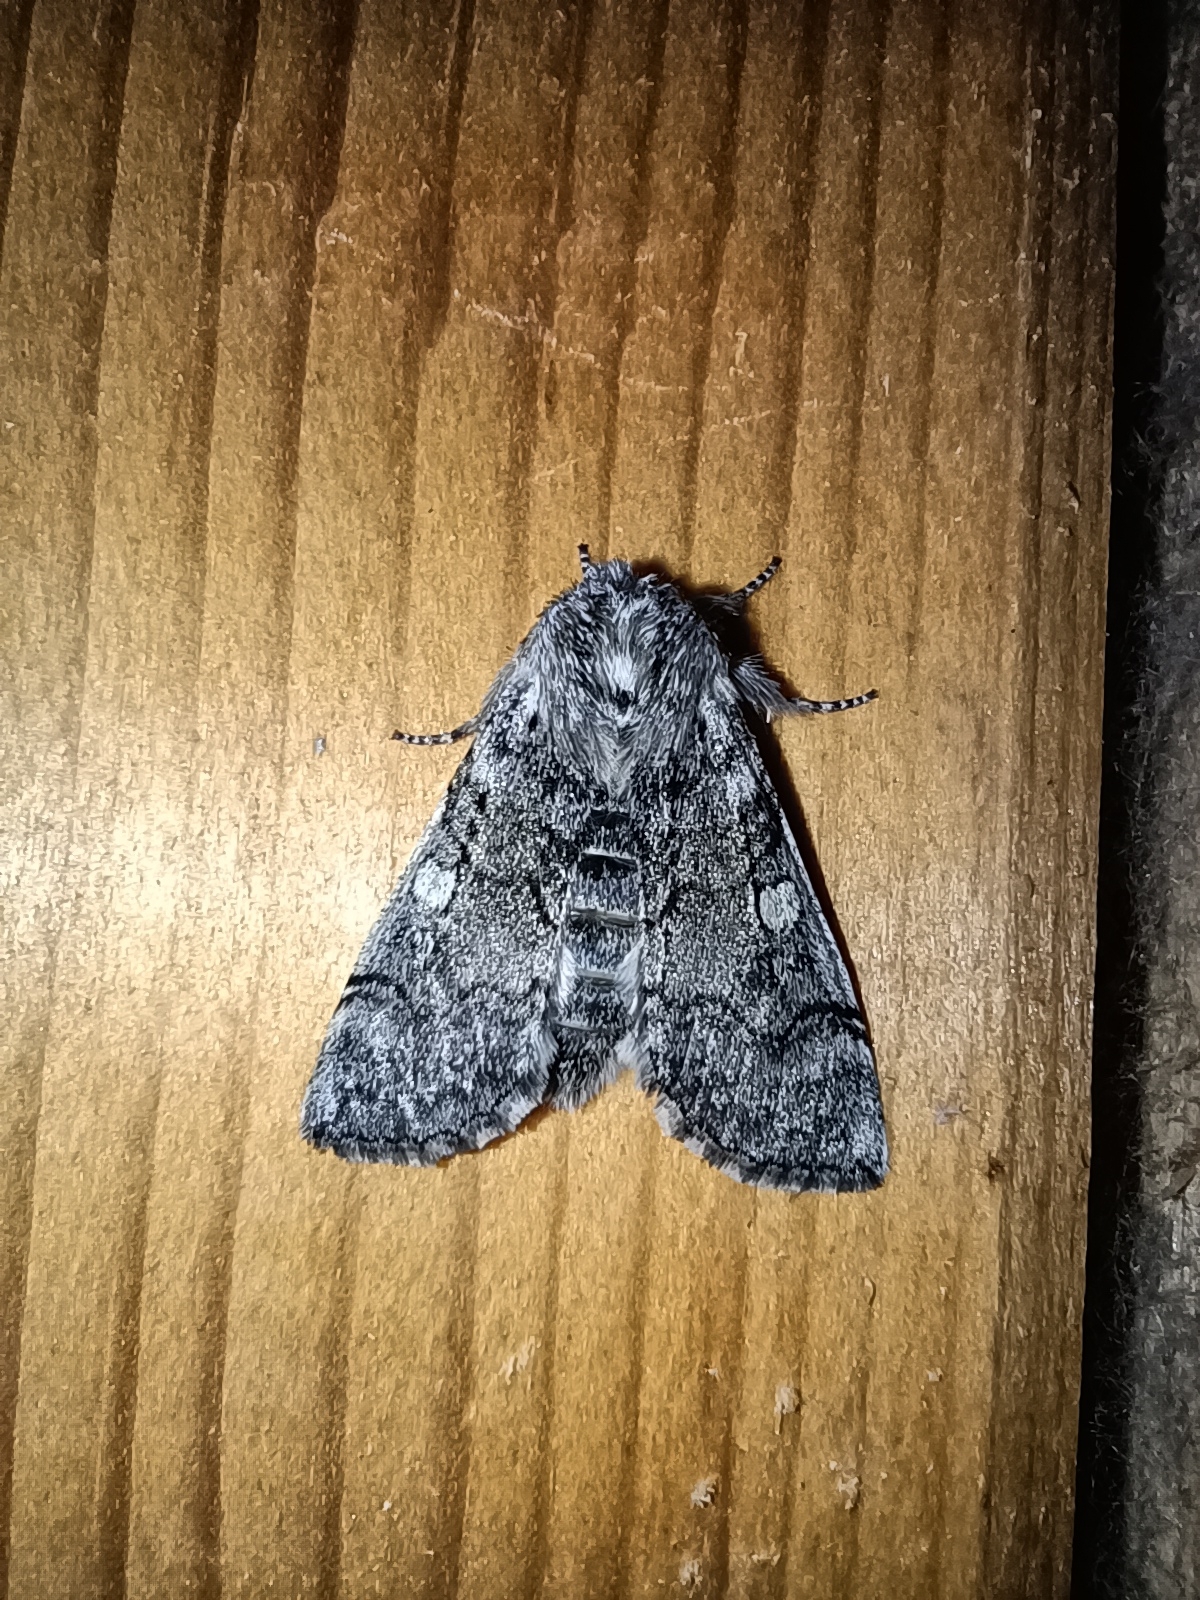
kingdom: Animalia
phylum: Arthropoda
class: Insecta
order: Lepidoptera
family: Drepanidae
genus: Achlya
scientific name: Achlya flavicornis
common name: Yellow horned
